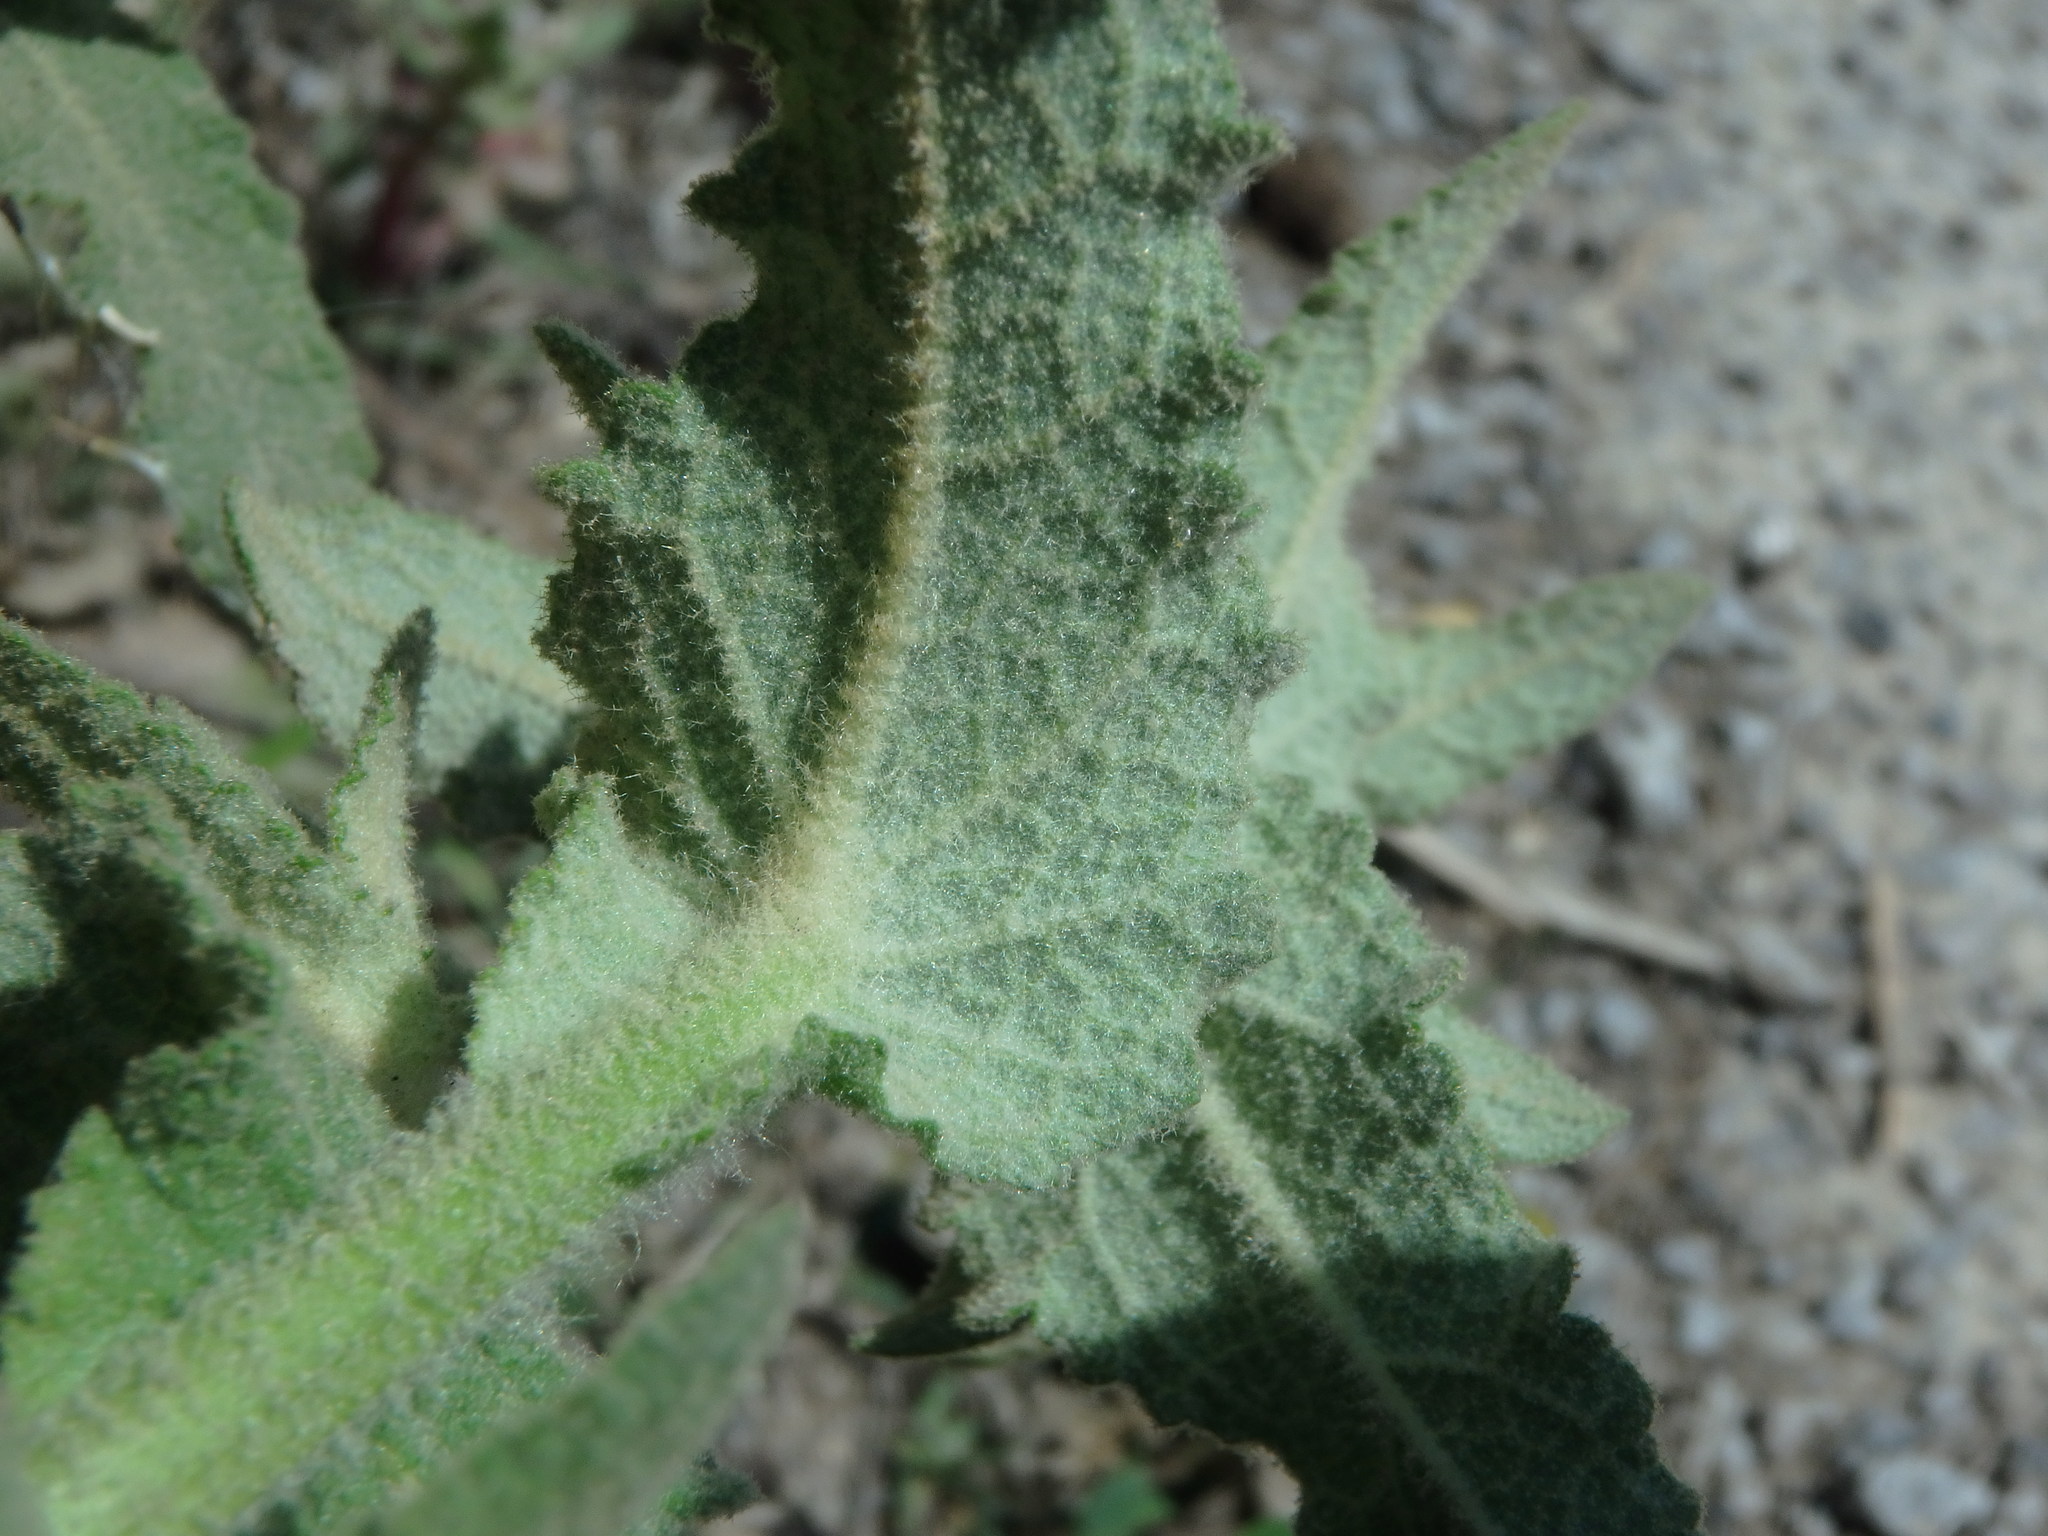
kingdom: Plantae
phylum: Tracheophyta
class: Magnoliopsida
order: Lamiales
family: Scrophulariaceae
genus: Verbascum
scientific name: Verbascum sinuatum
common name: Wavyleaf mullein
